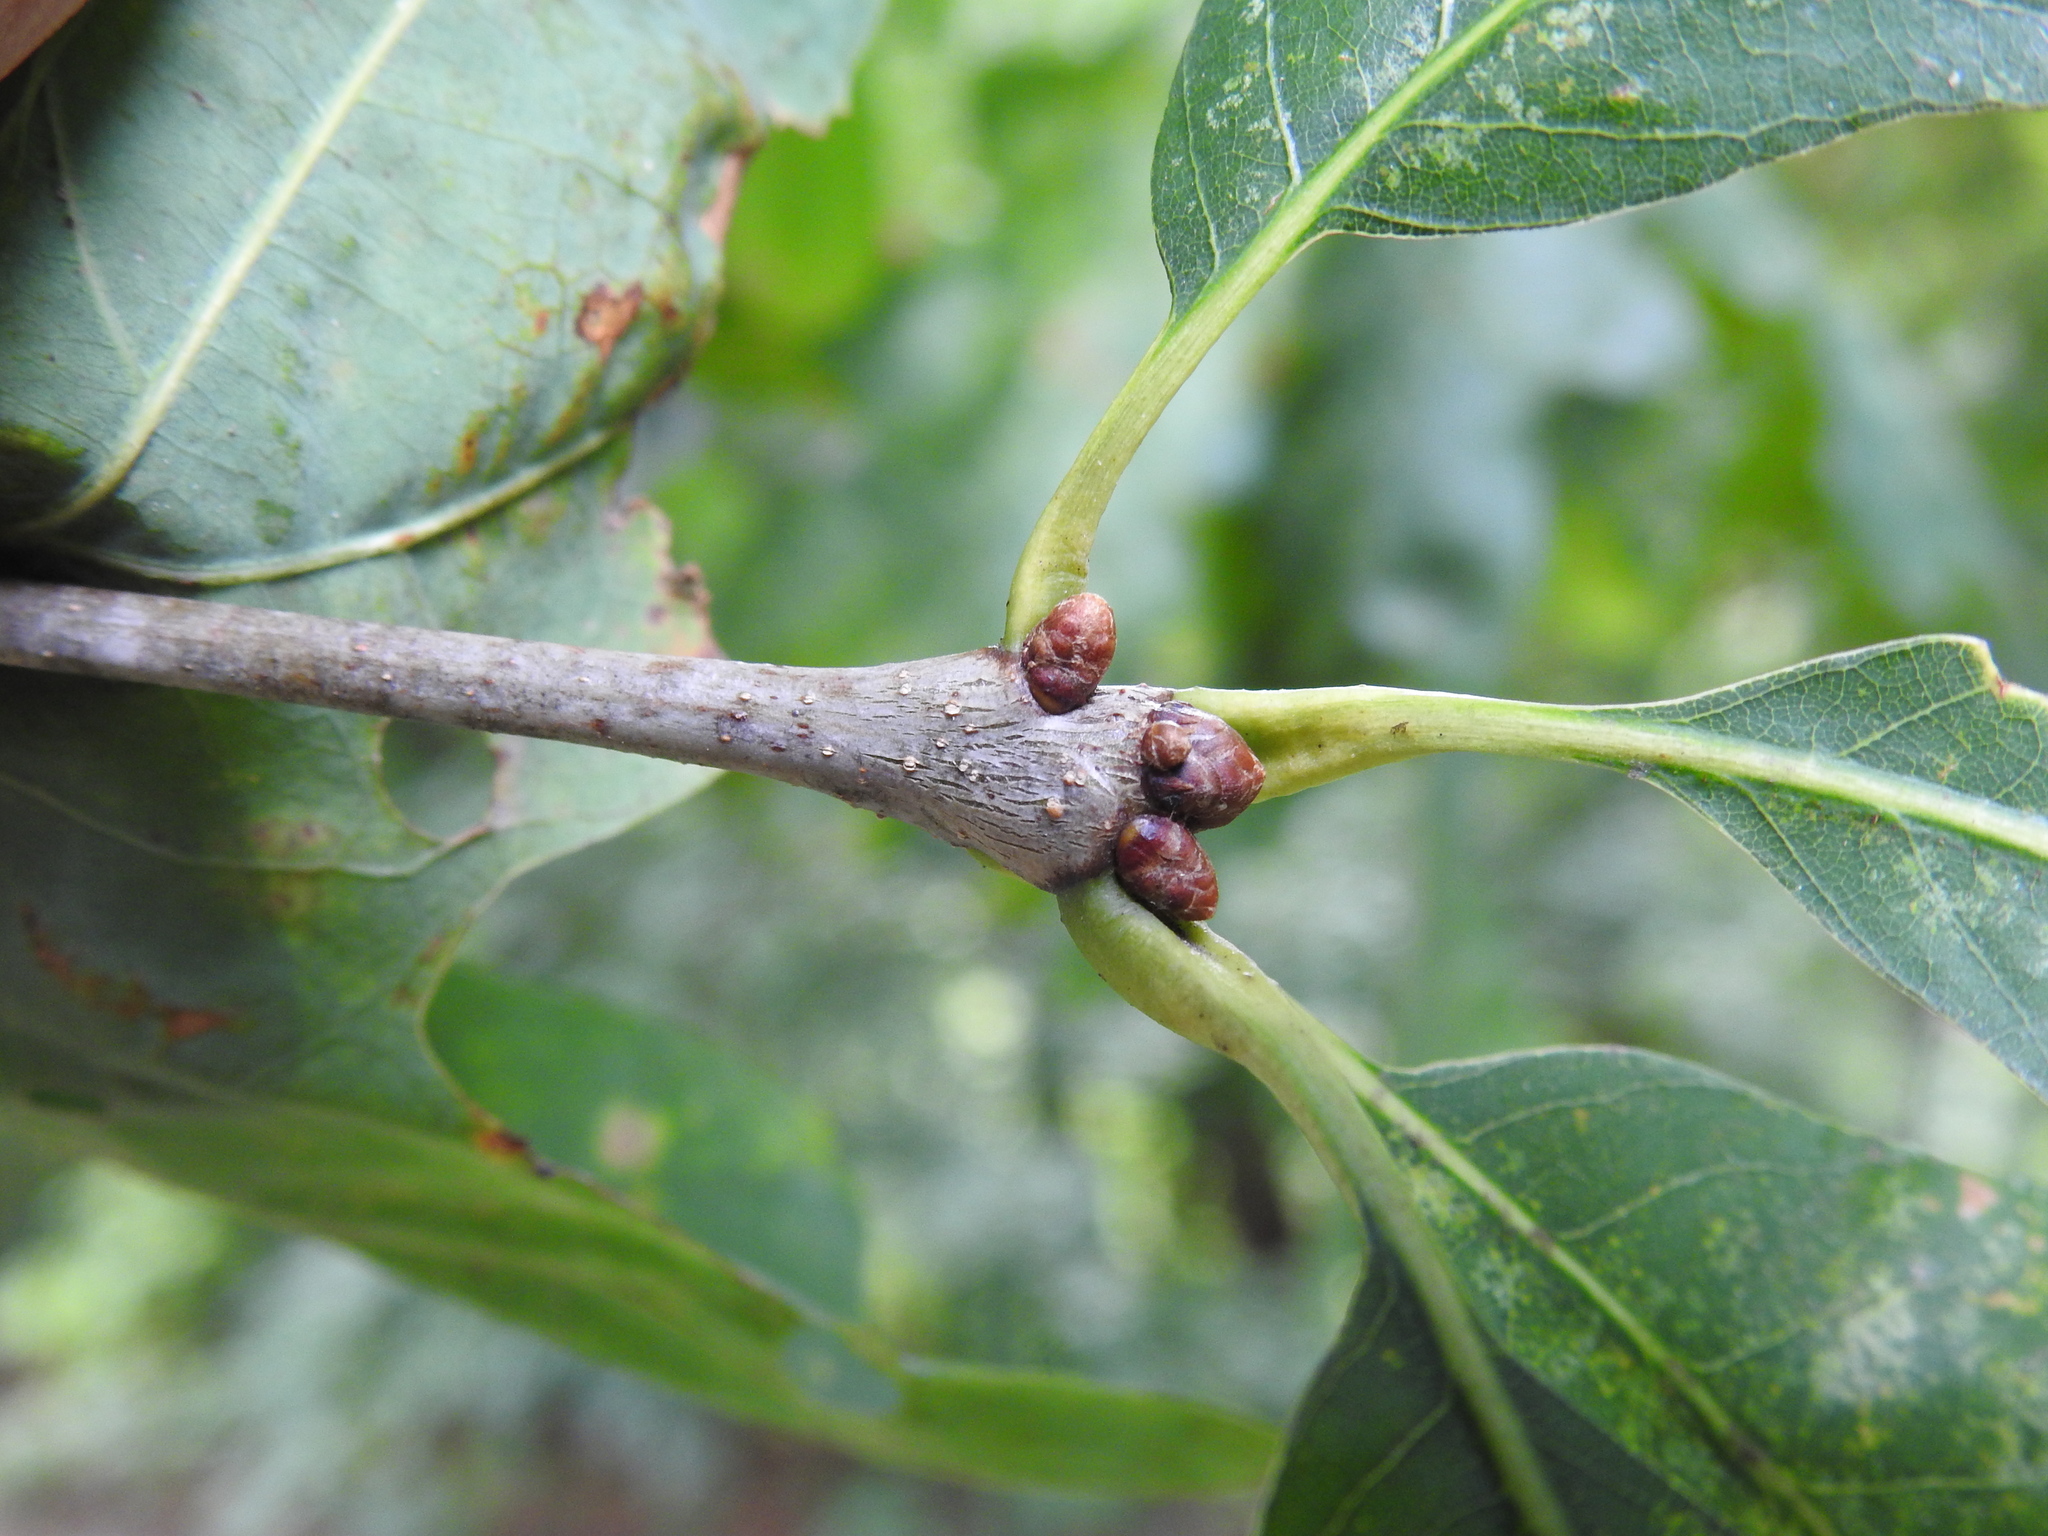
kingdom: Animalia
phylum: Arthropoda
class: Insecta
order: Hymenoptera
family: Cynipidae
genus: Callirhytis
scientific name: Callirhytis clavula
